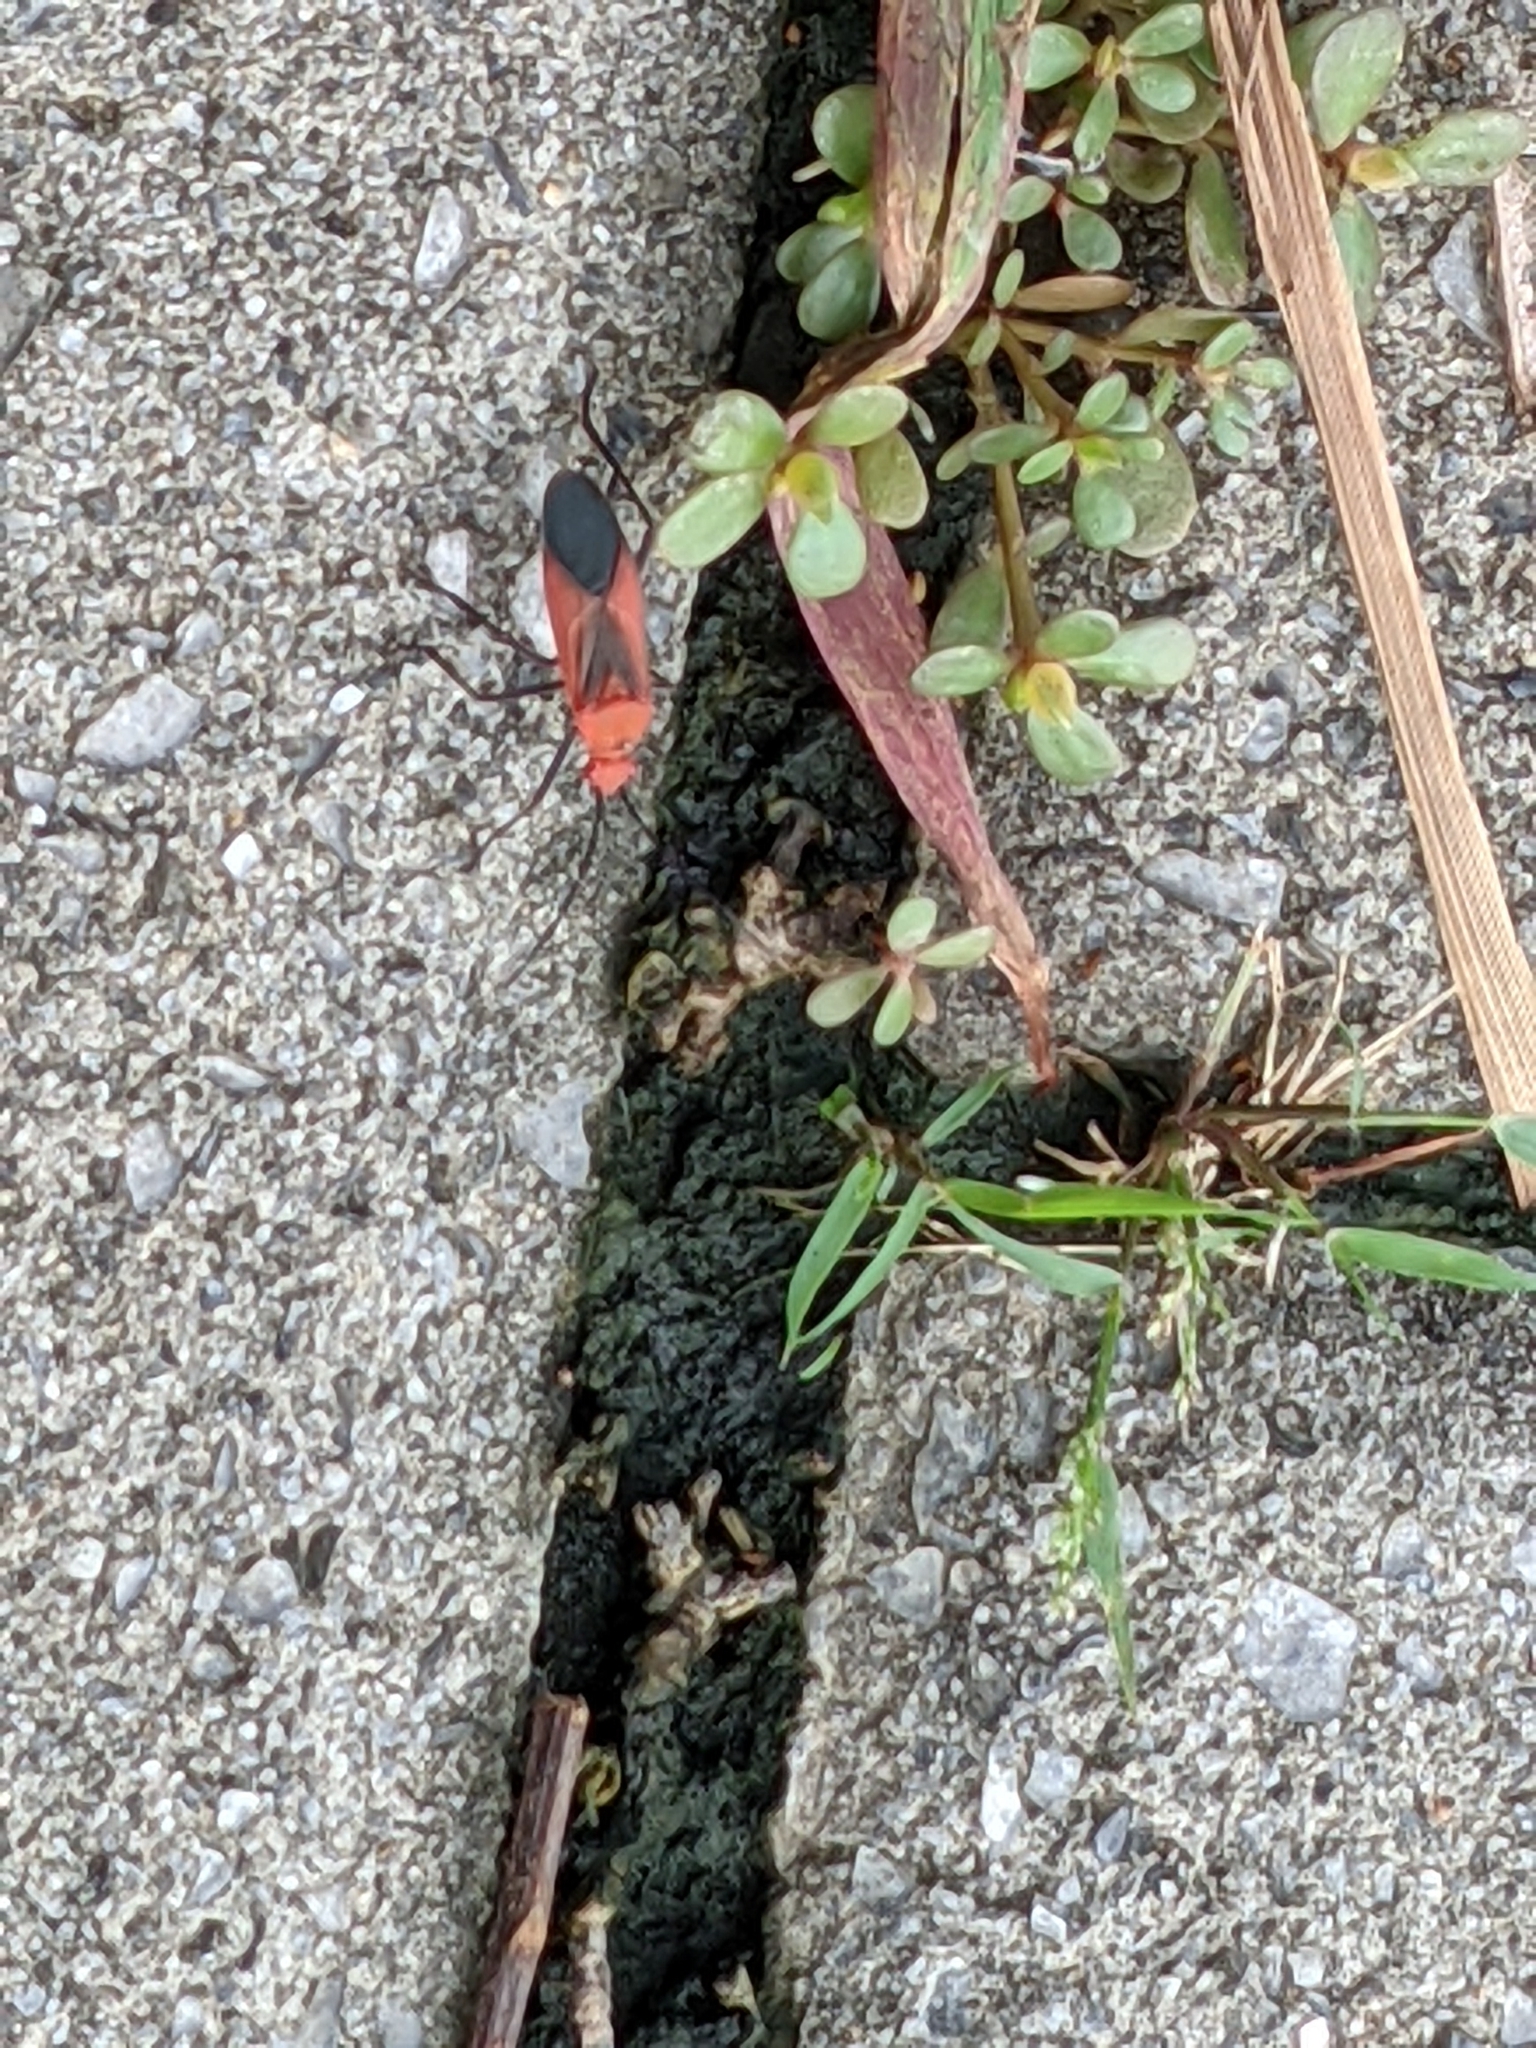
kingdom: Animalia
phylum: Arthropoda
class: Insecta
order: Hemiptera
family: Rhopalidae
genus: Leptocoris
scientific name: Leptocoris vicinus
